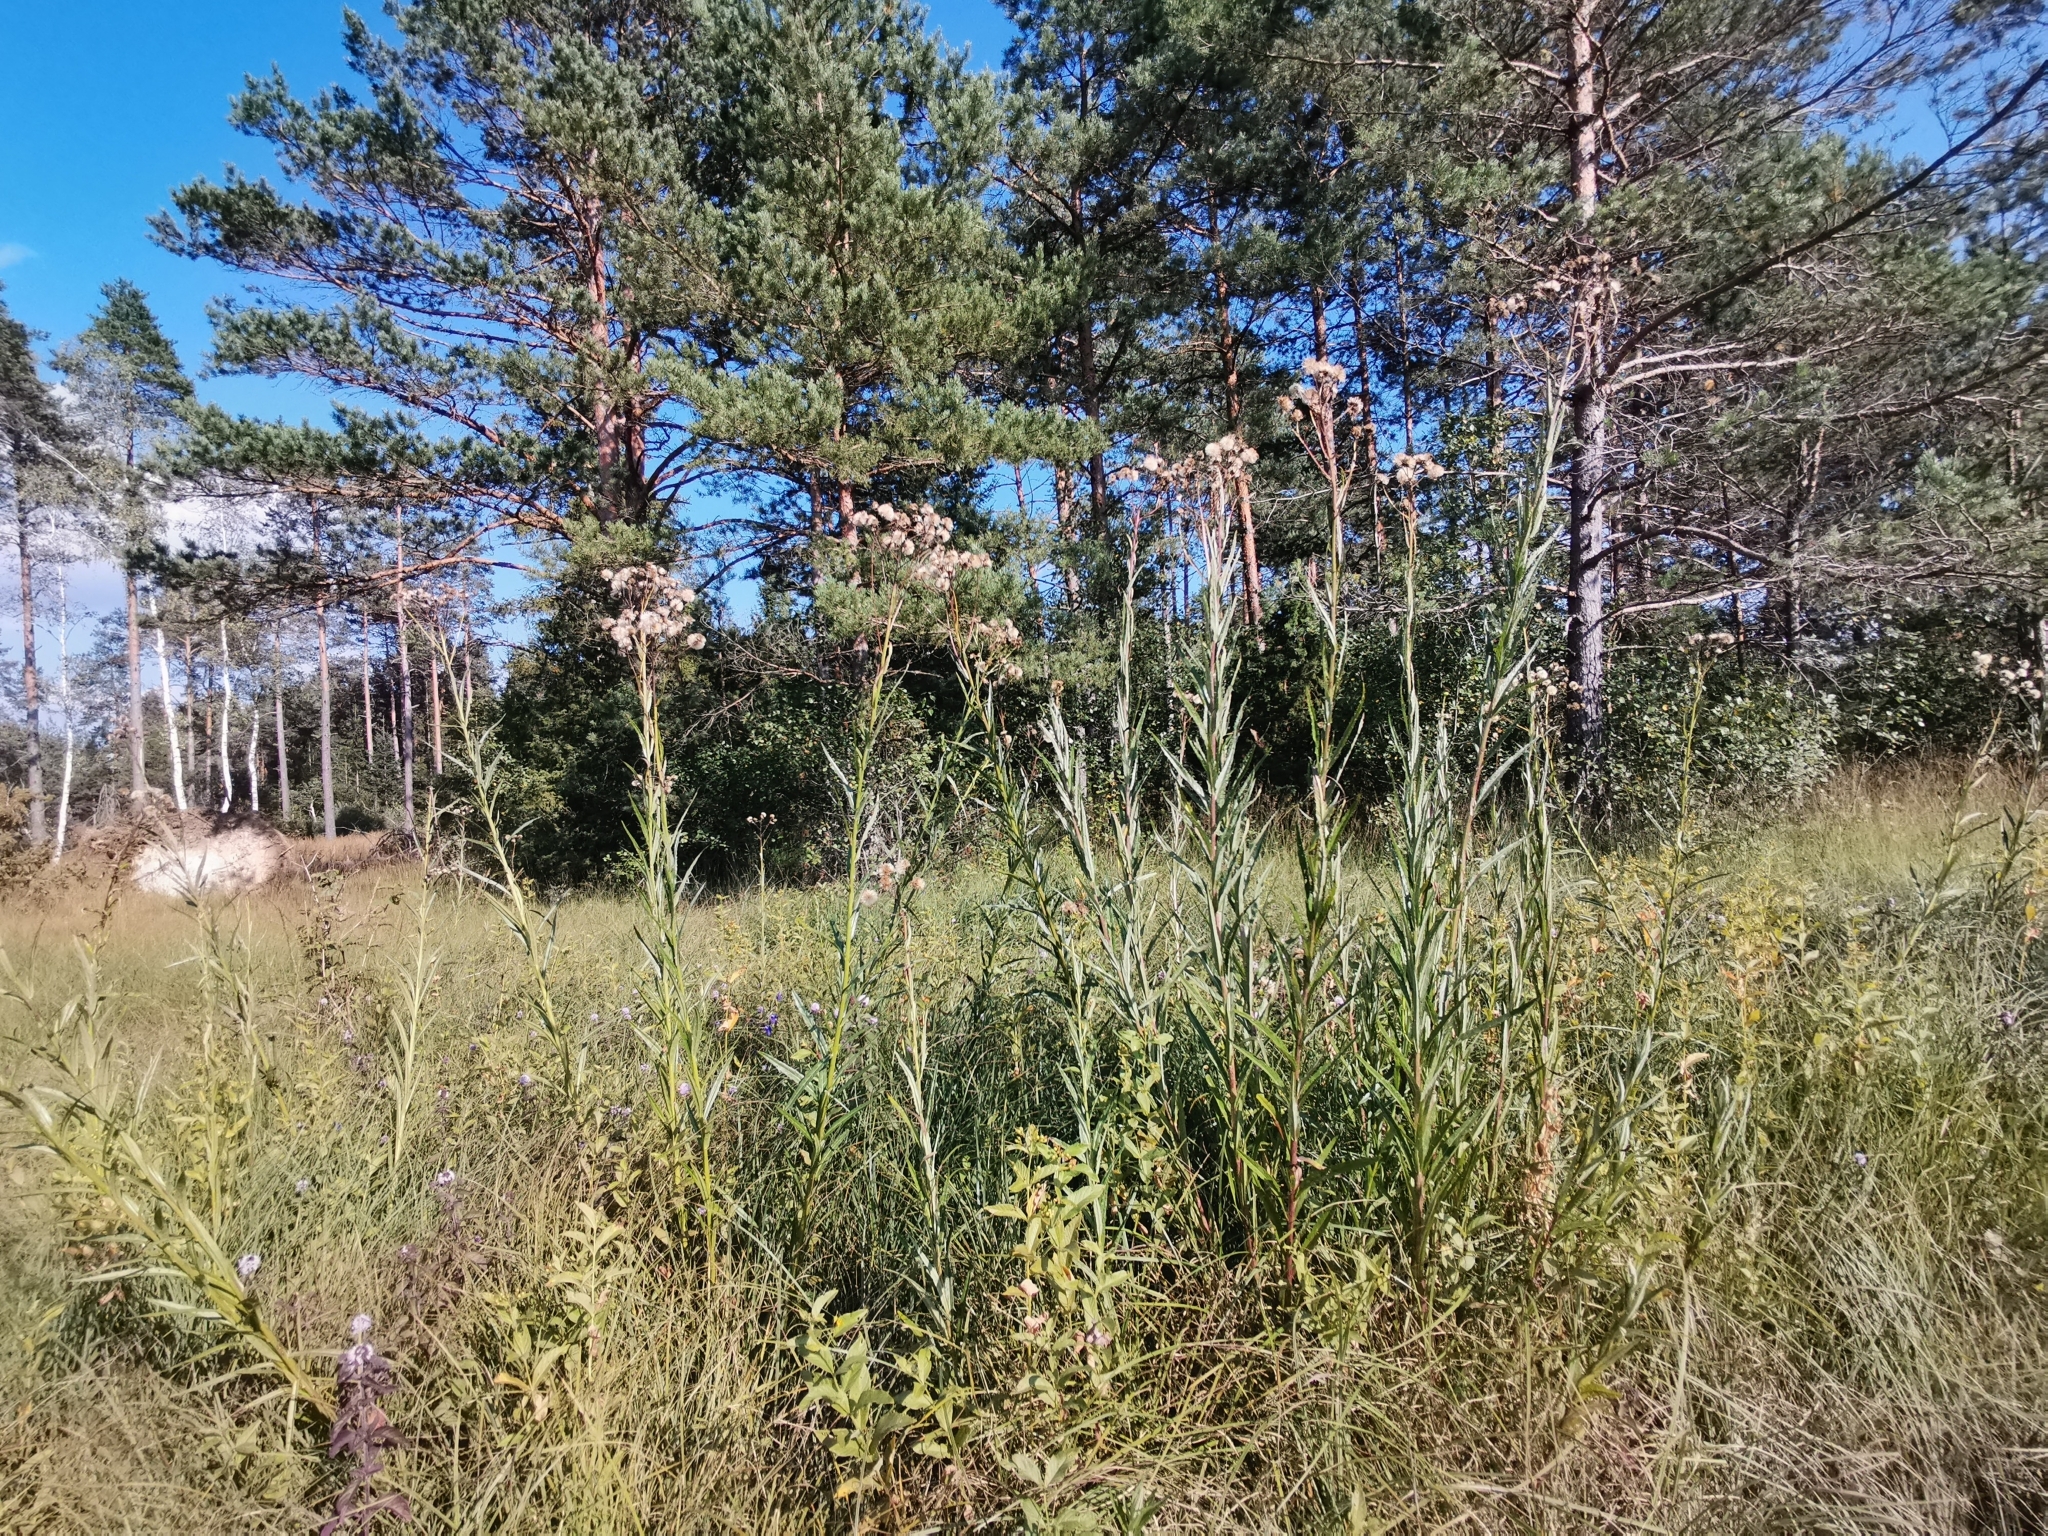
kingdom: Plantae
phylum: Tracheophyta
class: Magnoliopsida
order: Asterales
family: Asteraceae
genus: Jacobaea
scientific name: Jacobaea paludosa
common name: Fen ragwort
